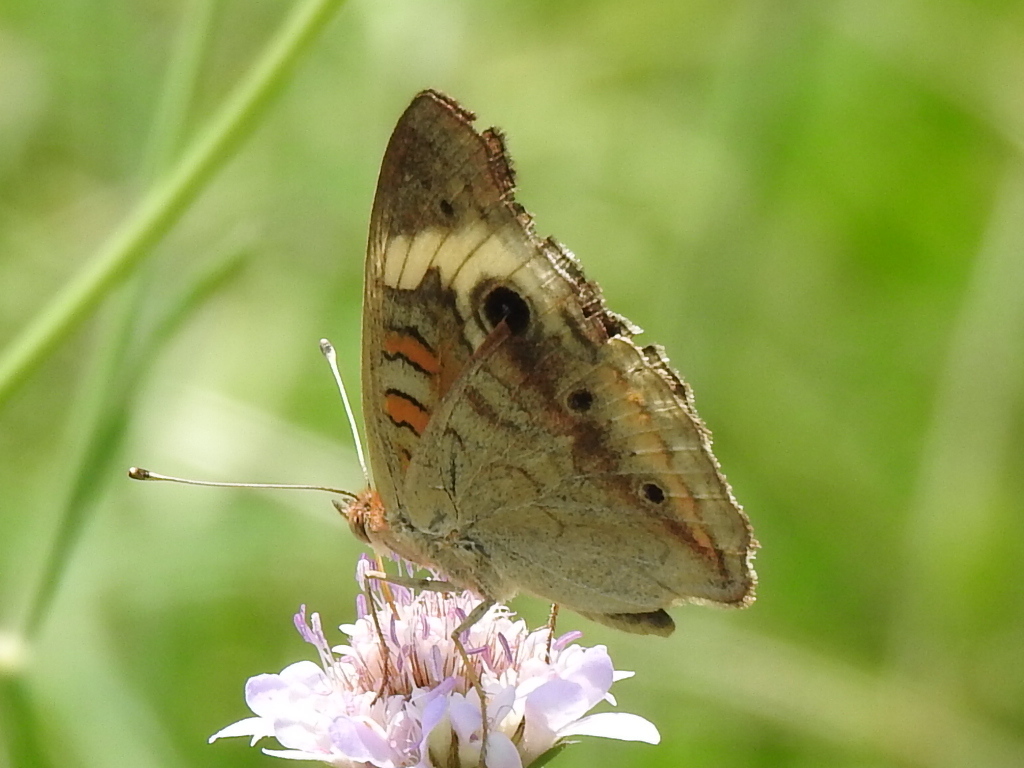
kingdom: Animalia
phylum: Arthropoda
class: Insecta
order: Lepidoptera
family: Nymphalidae
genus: Junonia
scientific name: Junonia coenia
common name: Common buckeye
